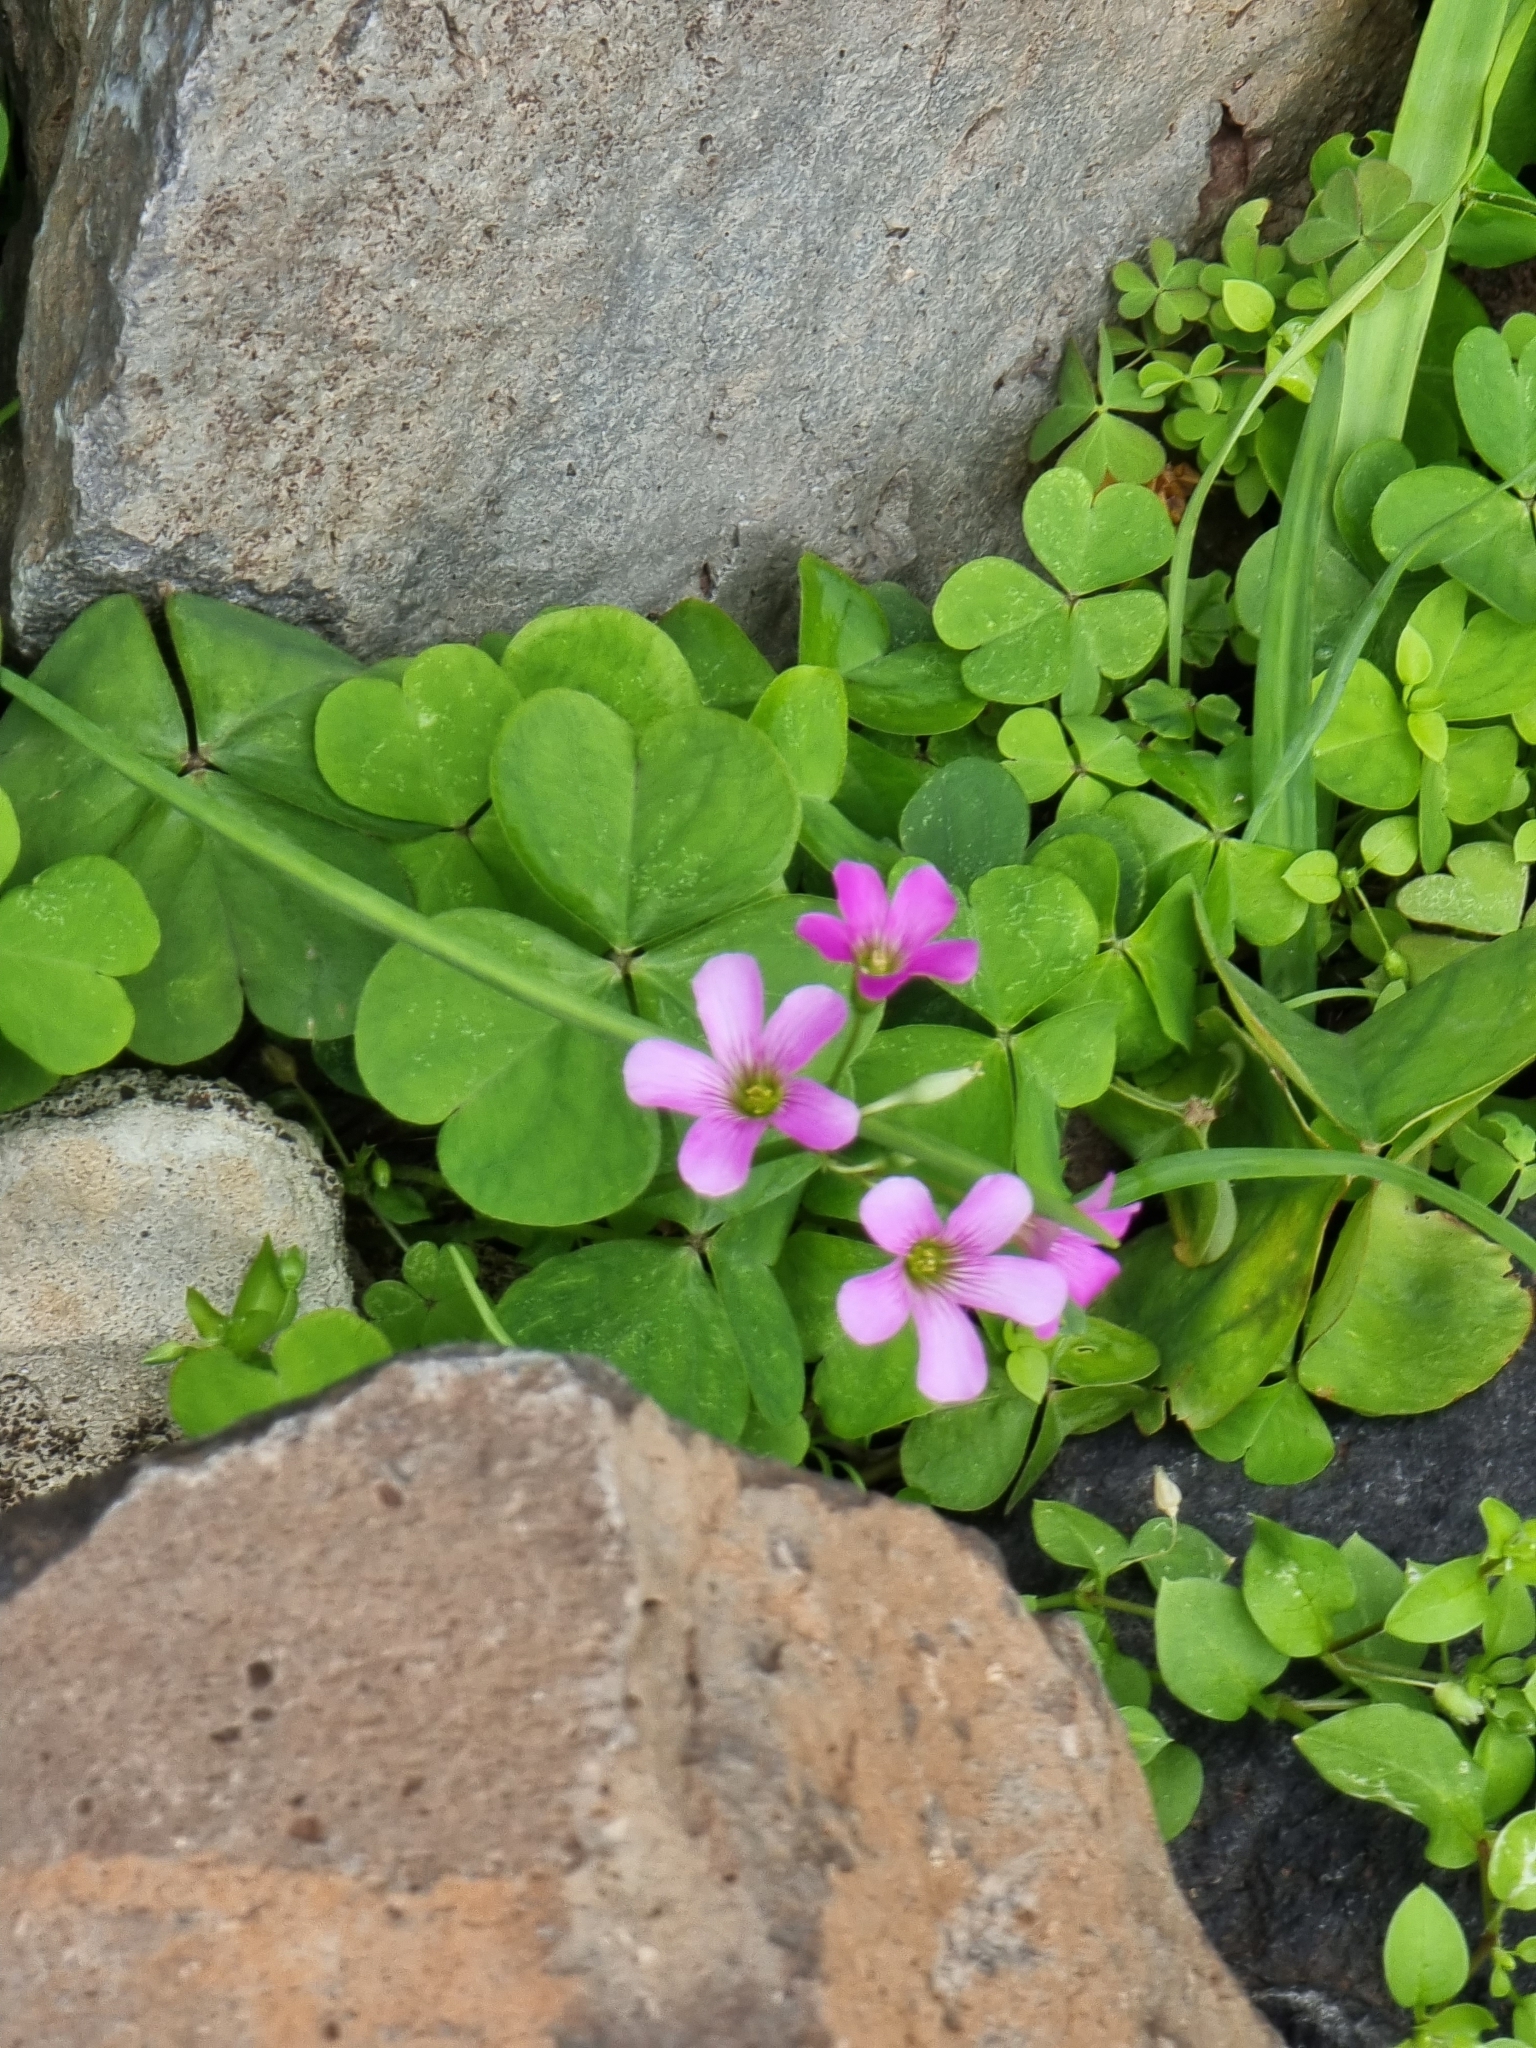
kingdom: Plantae
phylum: Tracheophyta
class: Magnoliopsida
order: Oxalidales
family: Oxalidaceae
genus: Oxalis
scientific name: Oxalis debilis
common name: Large-flowered pink-sorrel
